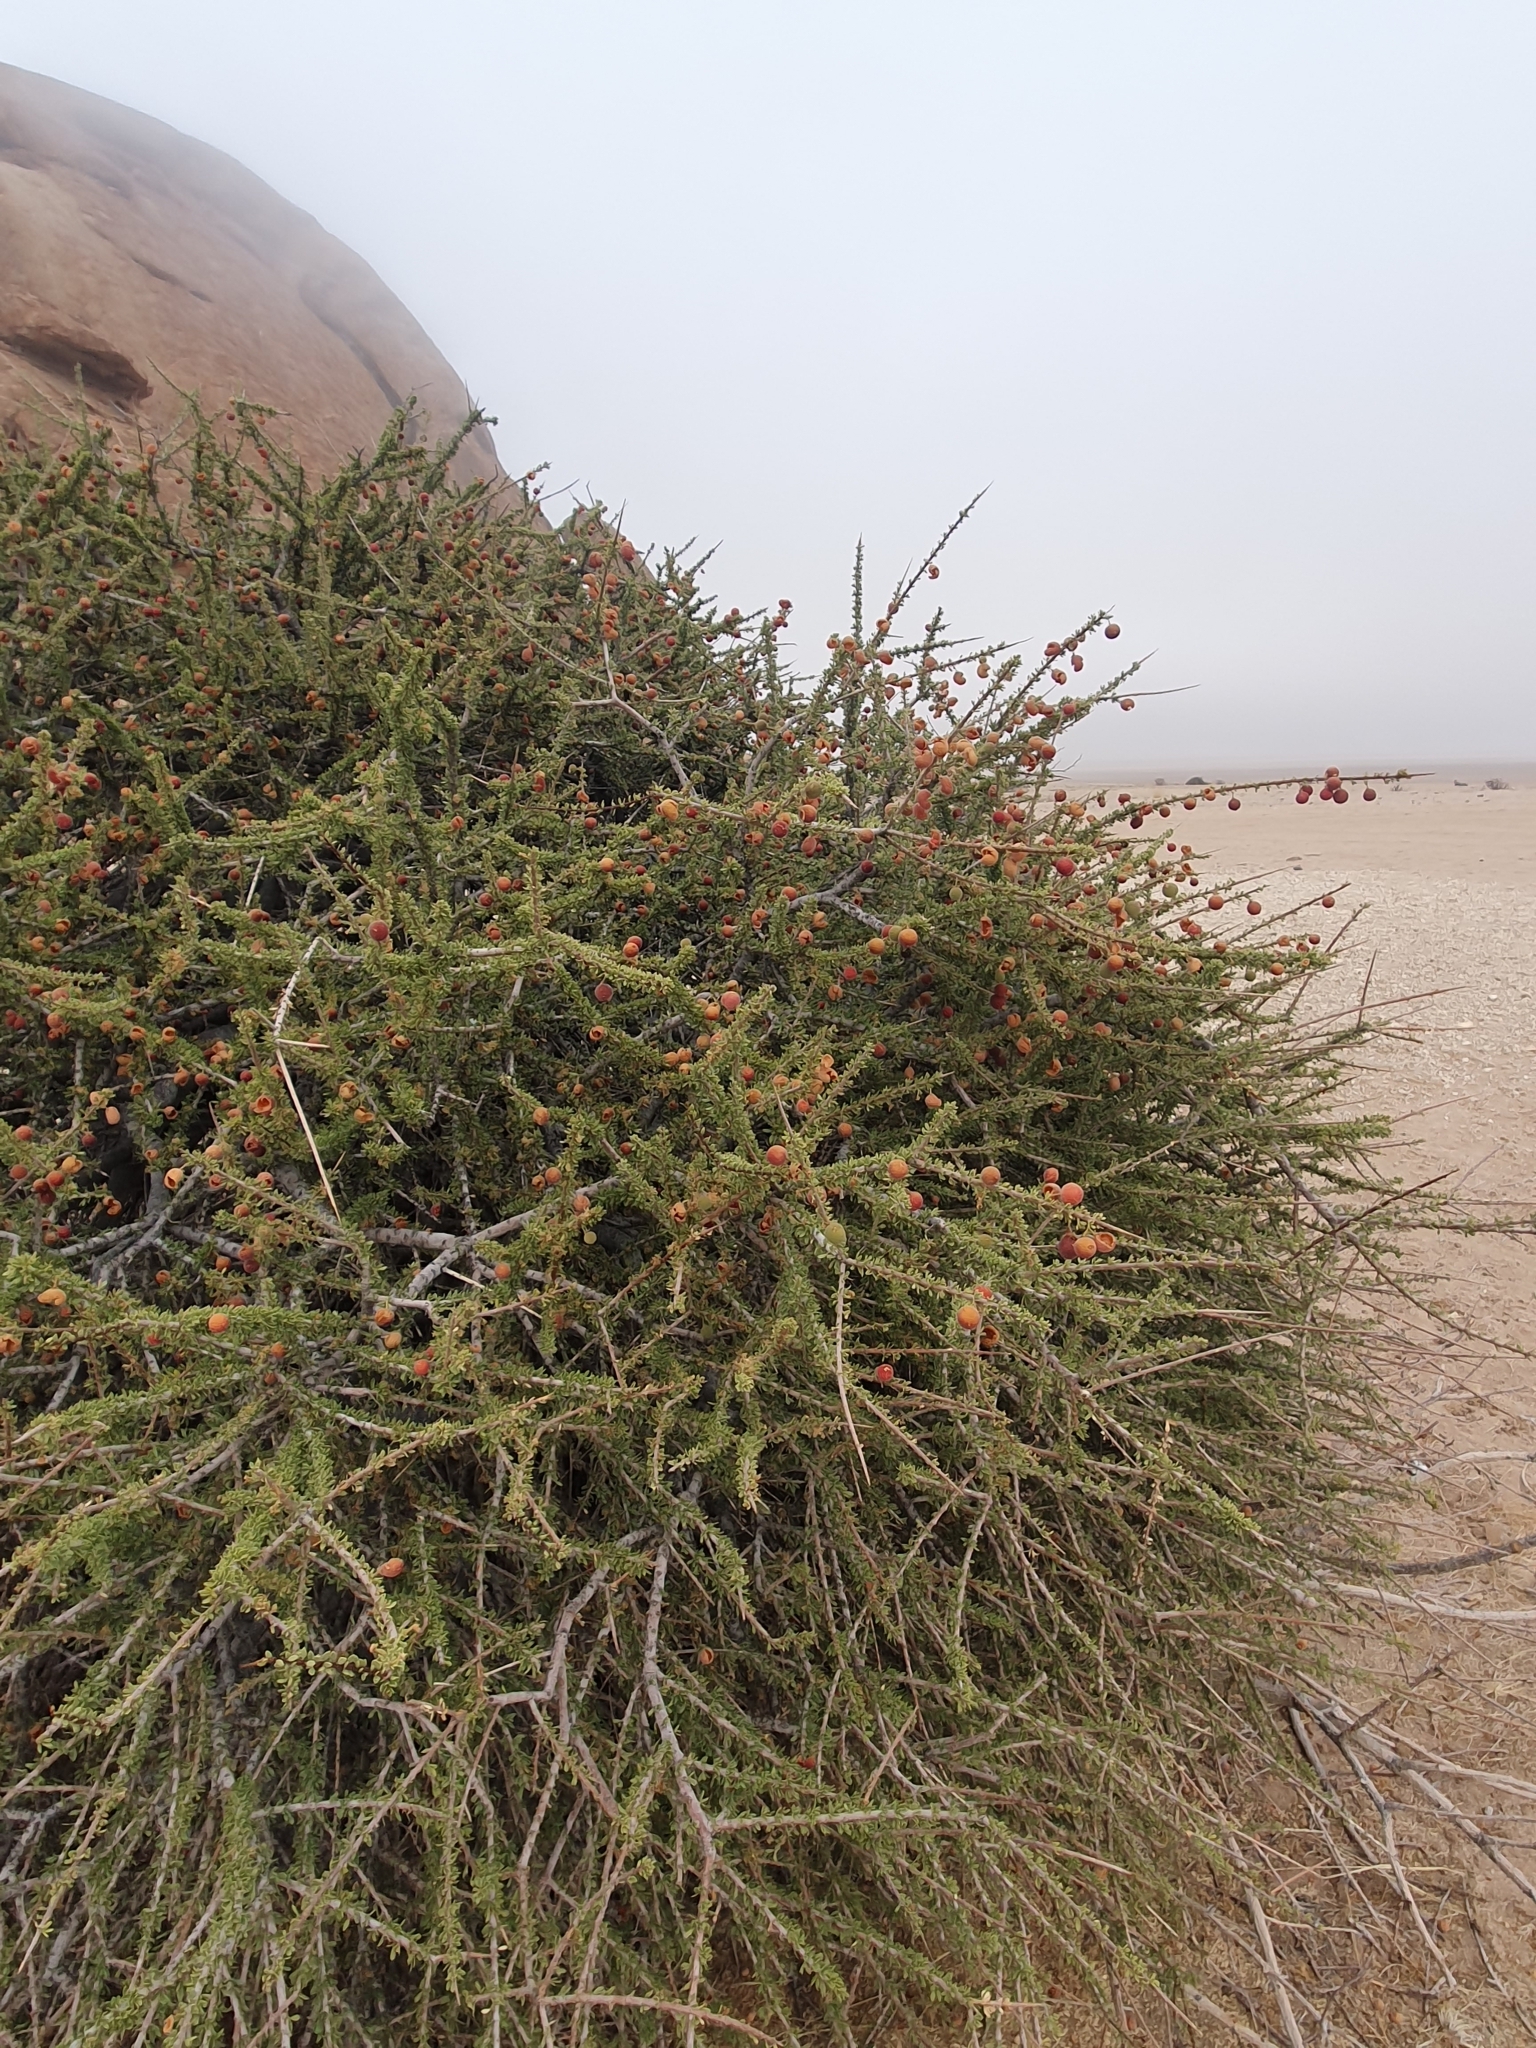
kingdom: Plantae
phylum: Tracheophyta
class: Magnoliopsida
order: Brassicales
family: Capparaceae
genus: Boscia
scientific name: Boscia foetida
